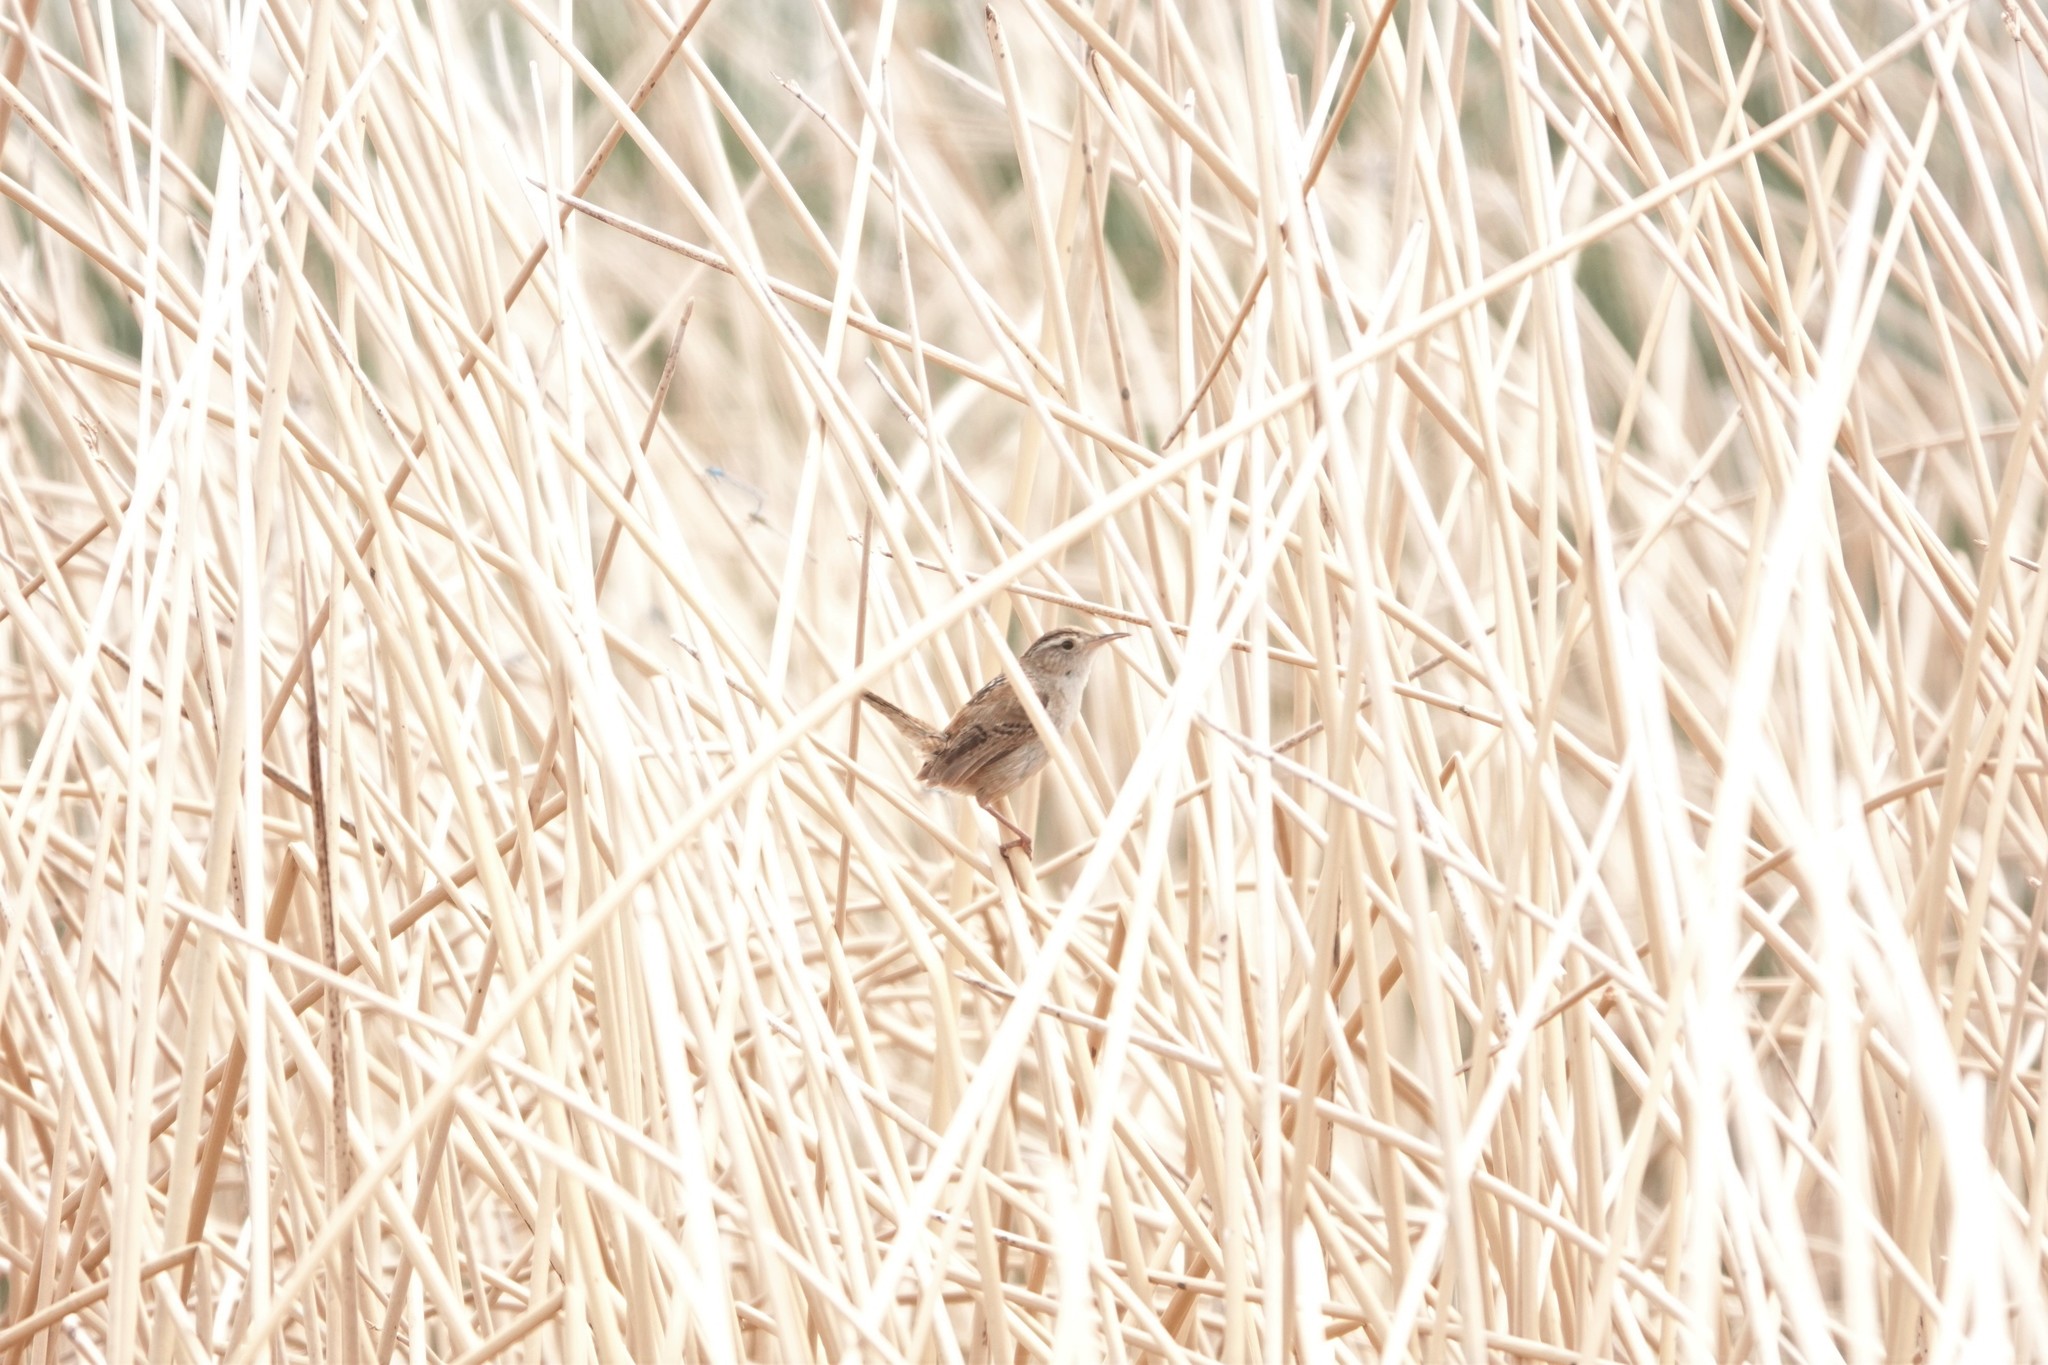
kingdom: Animalia
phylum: Chordata
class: Aves
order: Passeriformes
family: Troglodytidae
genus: Cistothorus
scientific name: Cistothorus palustris
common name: Marsh wren
